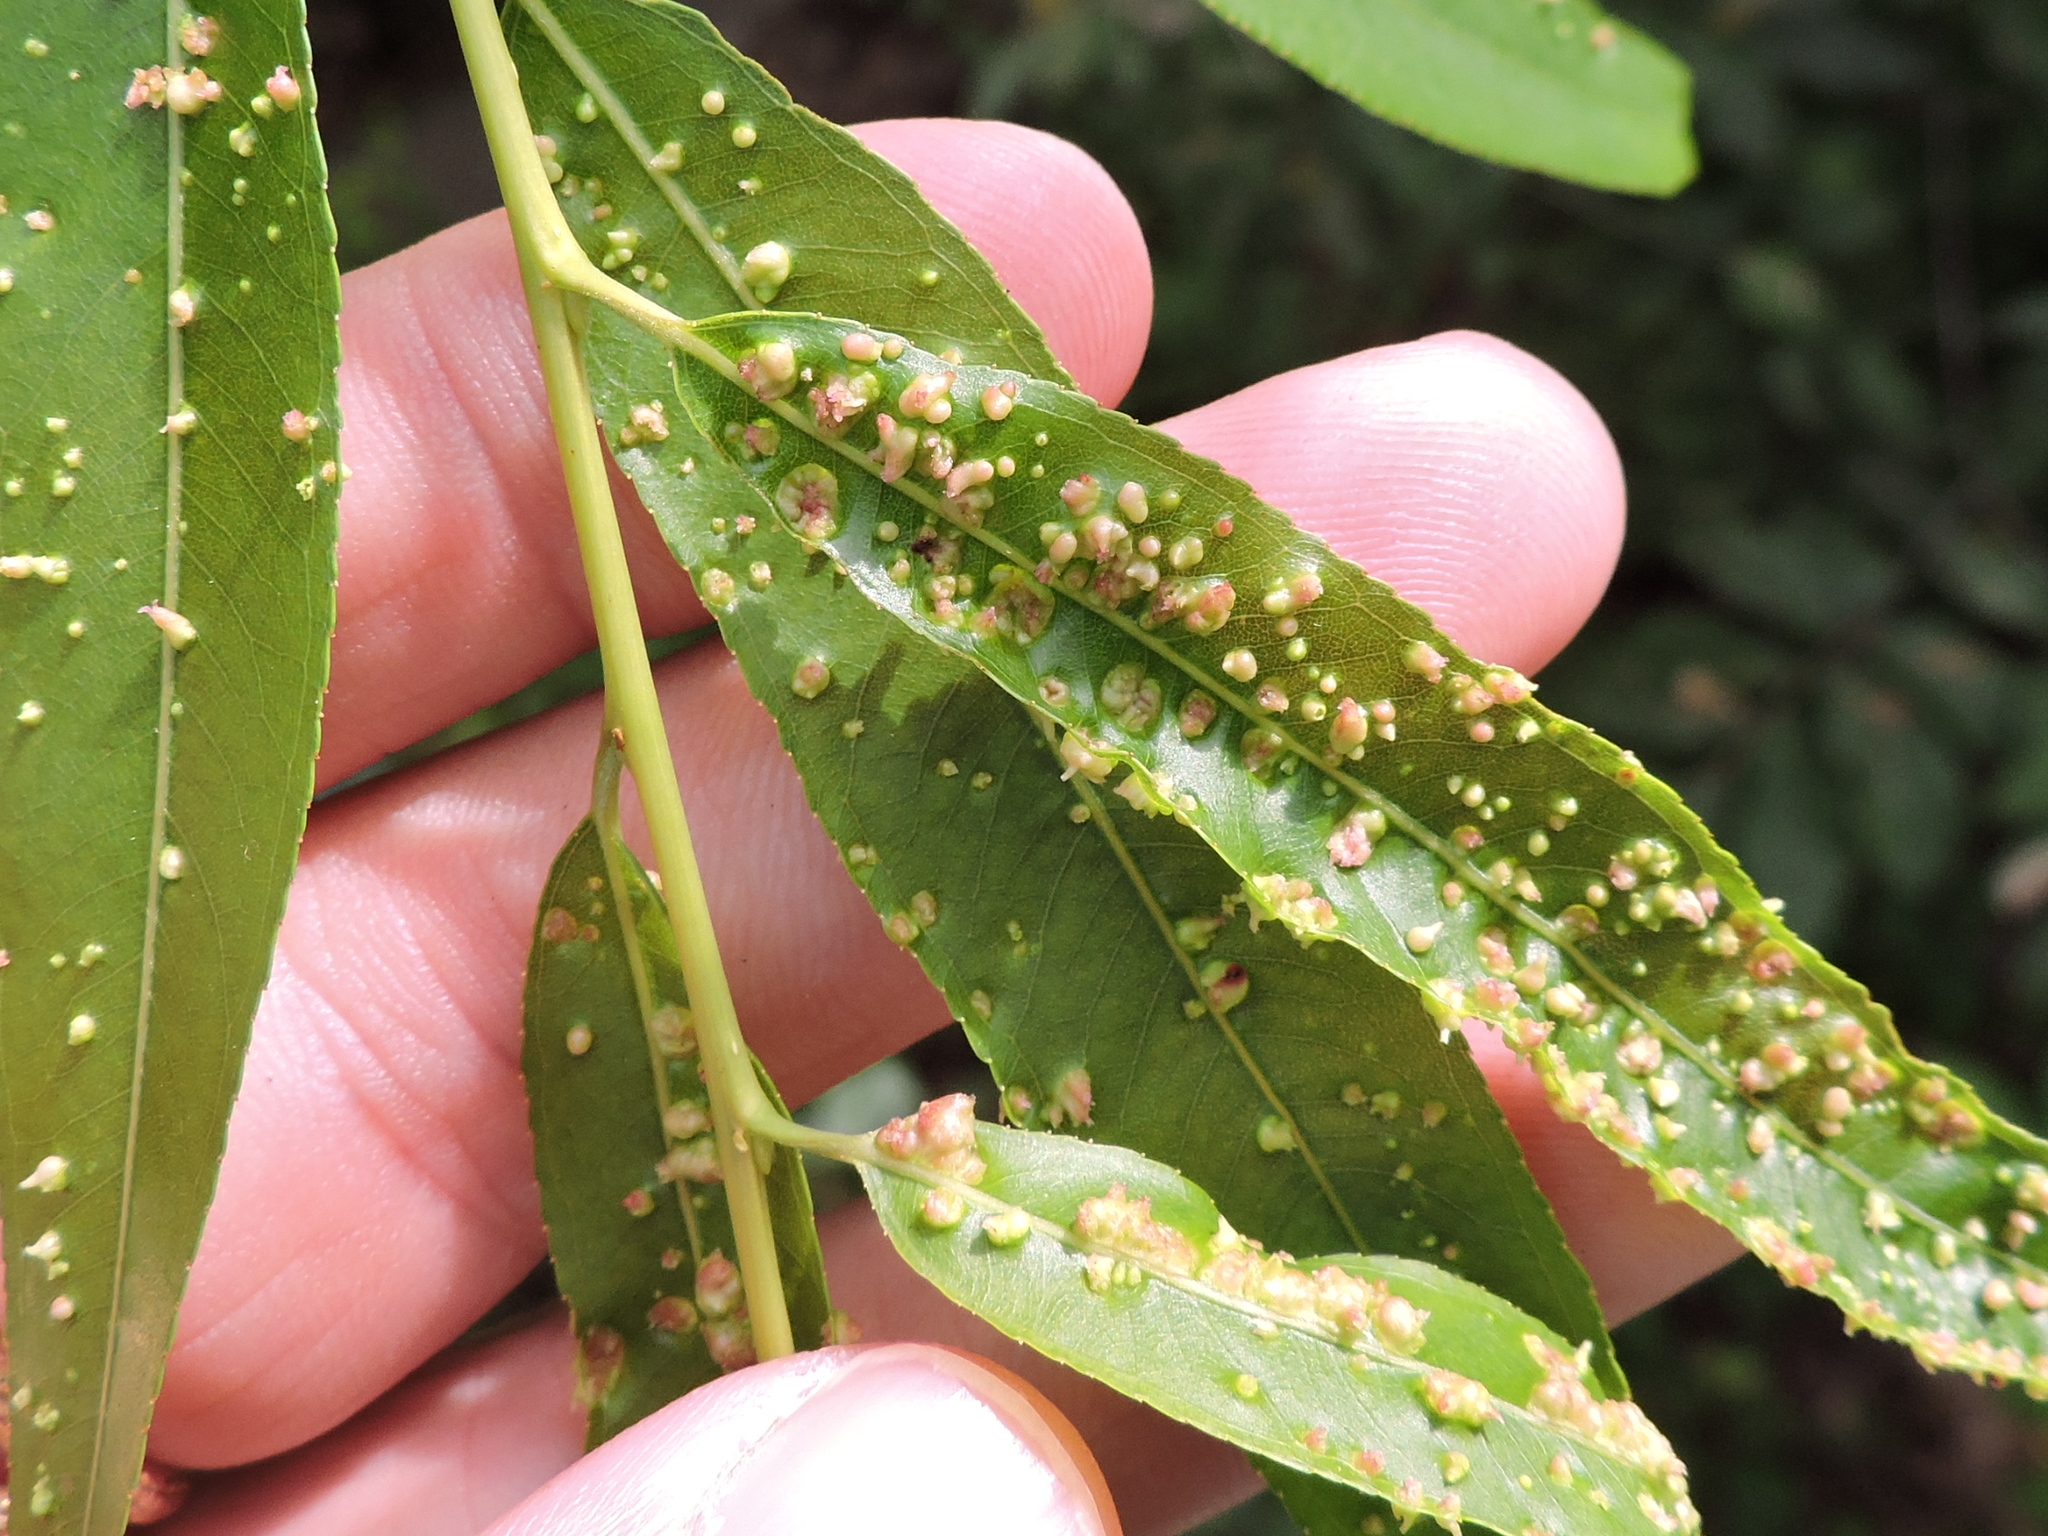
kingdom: Animalia
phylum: Arthropoda
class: Arachnida
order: Trombidiformes
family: Eriophyidae
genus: Aculus
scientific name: Aculus tetanothrix
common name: Willow bead gall mite
